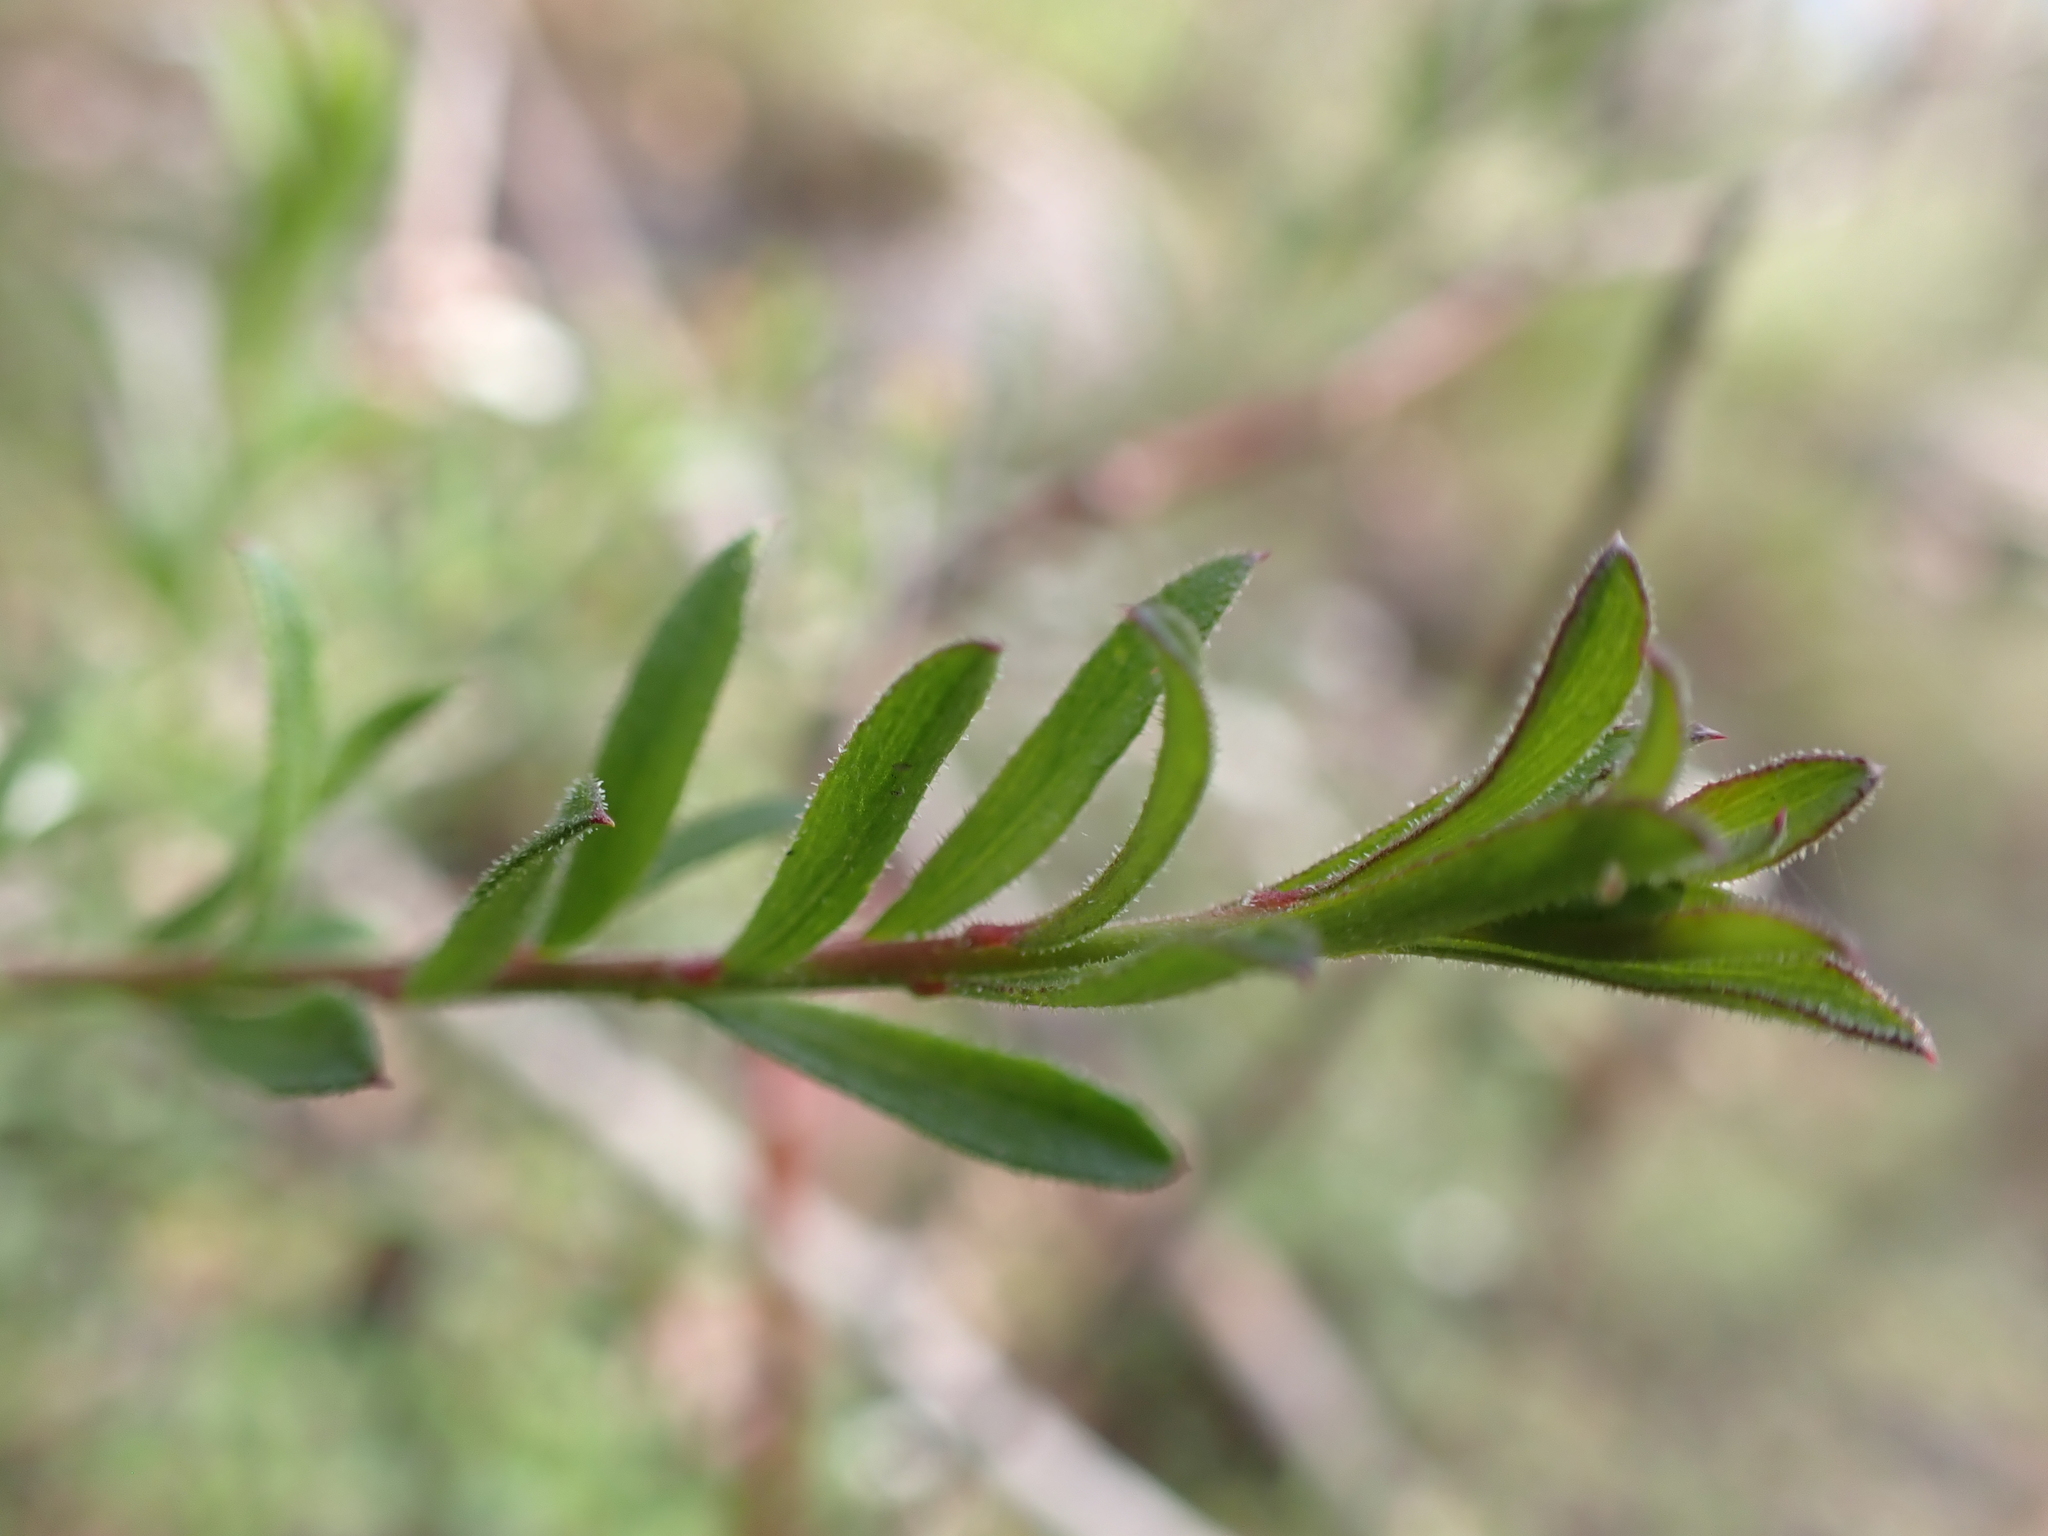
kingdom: Plantae
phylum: Tracheophyta
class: Magnoliopsida
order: Apiales
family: Apiaceae
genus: Platysace
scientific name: Platysace ericoides
